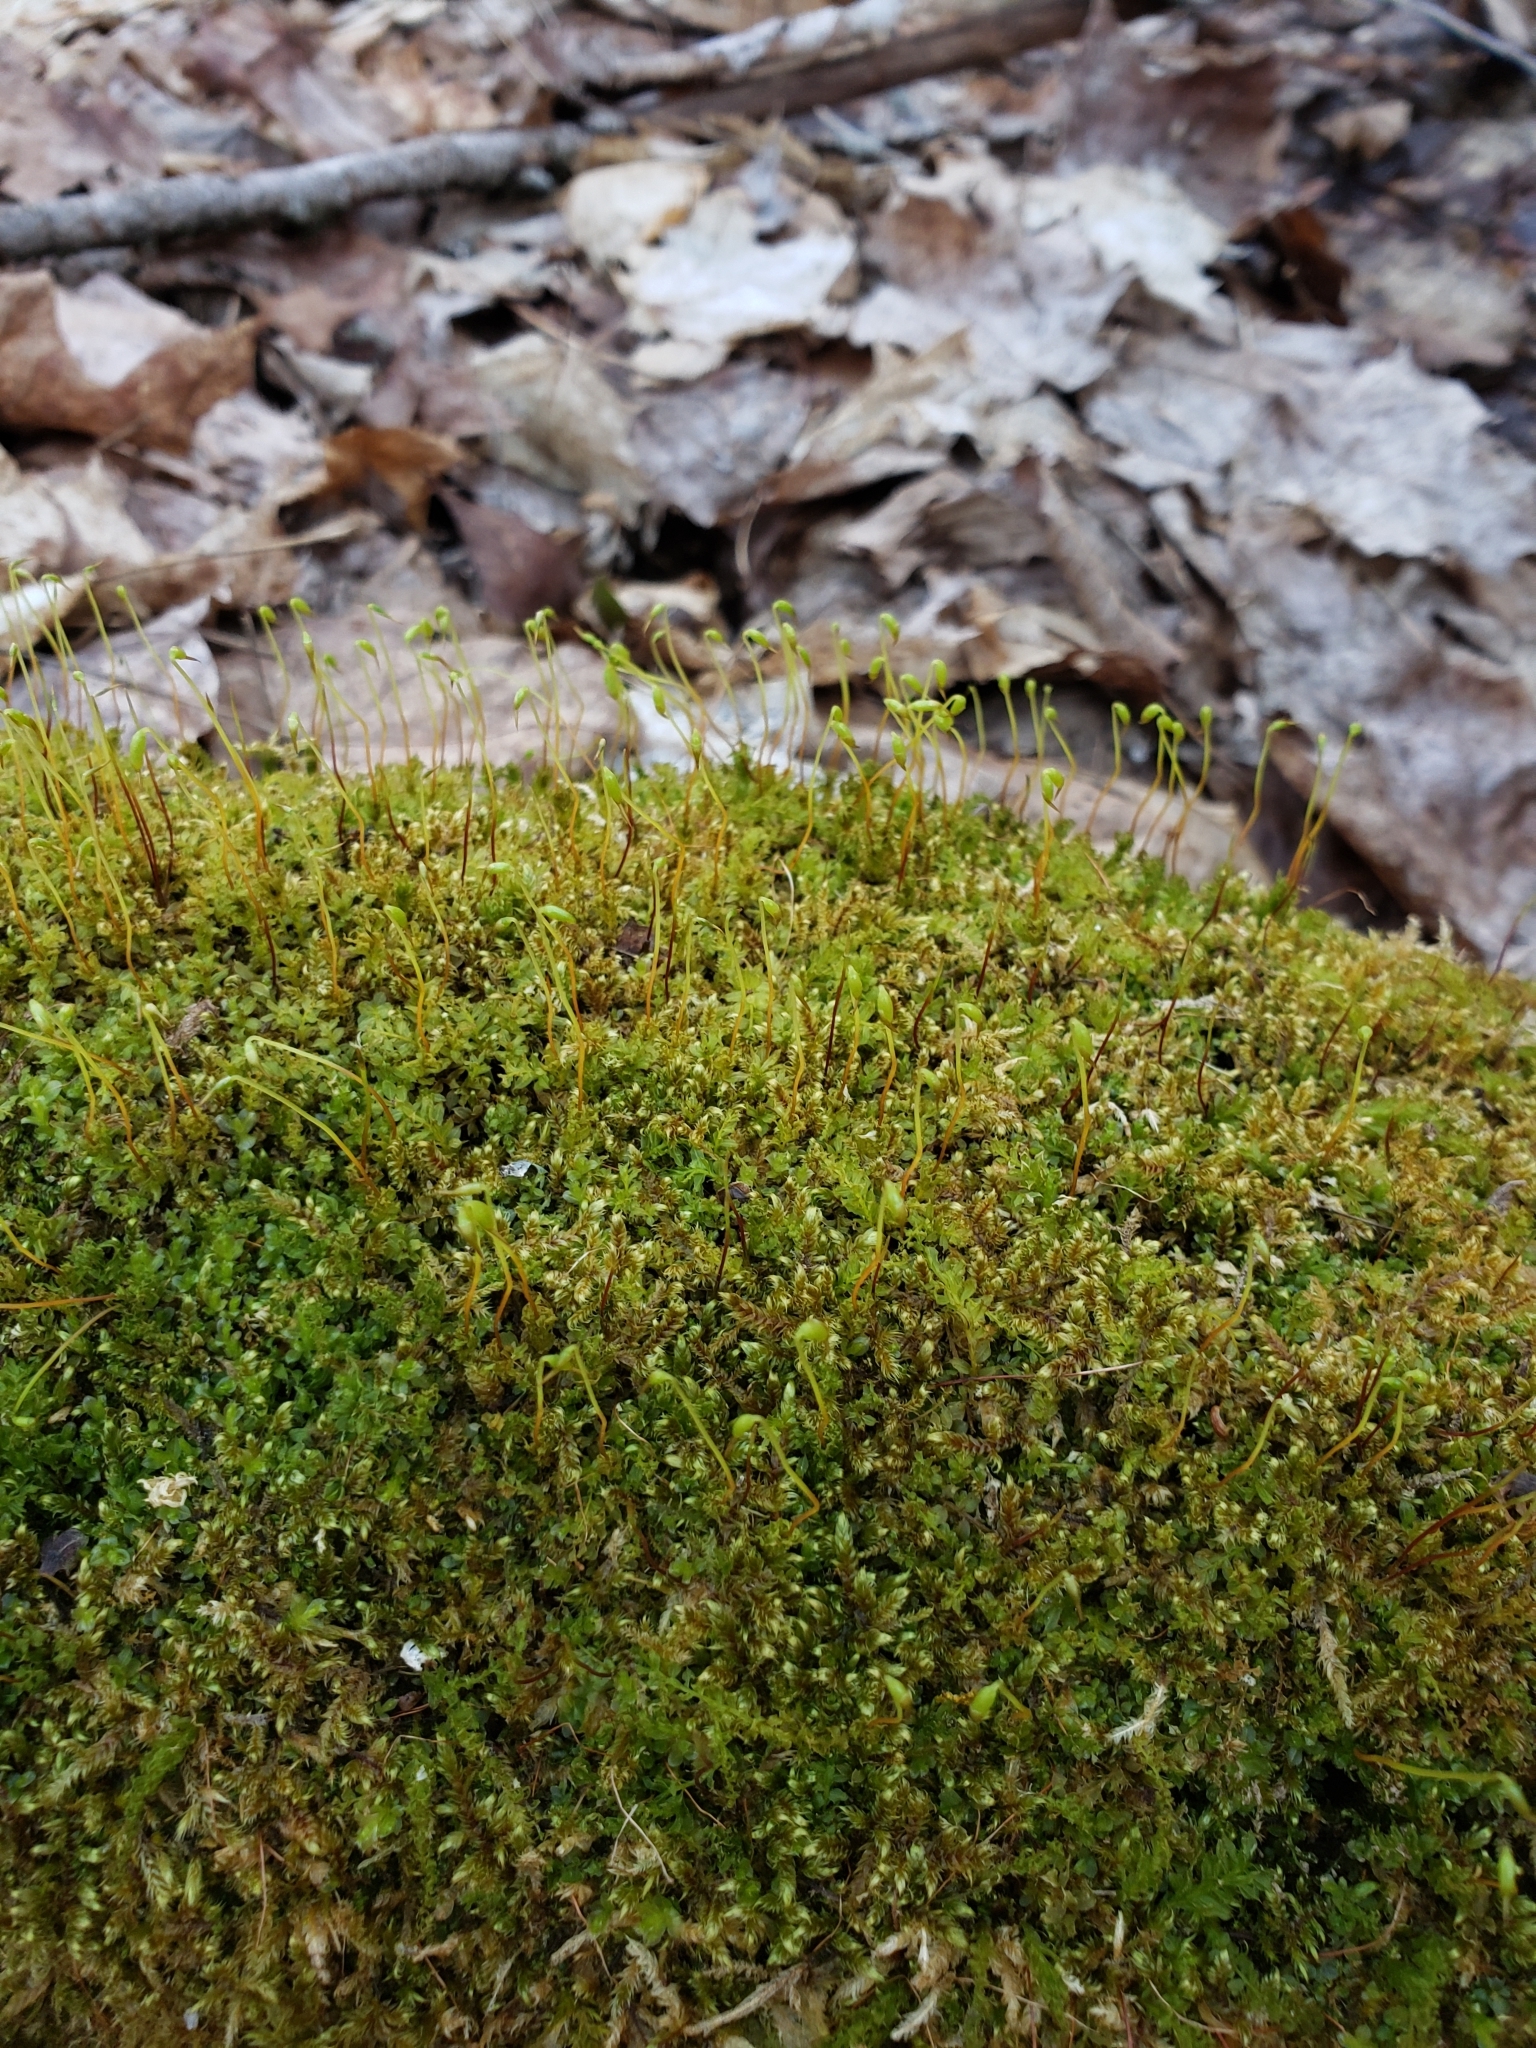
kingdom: Plantae
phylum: Bryophyta
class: Bryopsida
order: Bartramiales
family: Bartramiaceae
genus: Bartramia
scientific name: Bartramia ithyphylla
